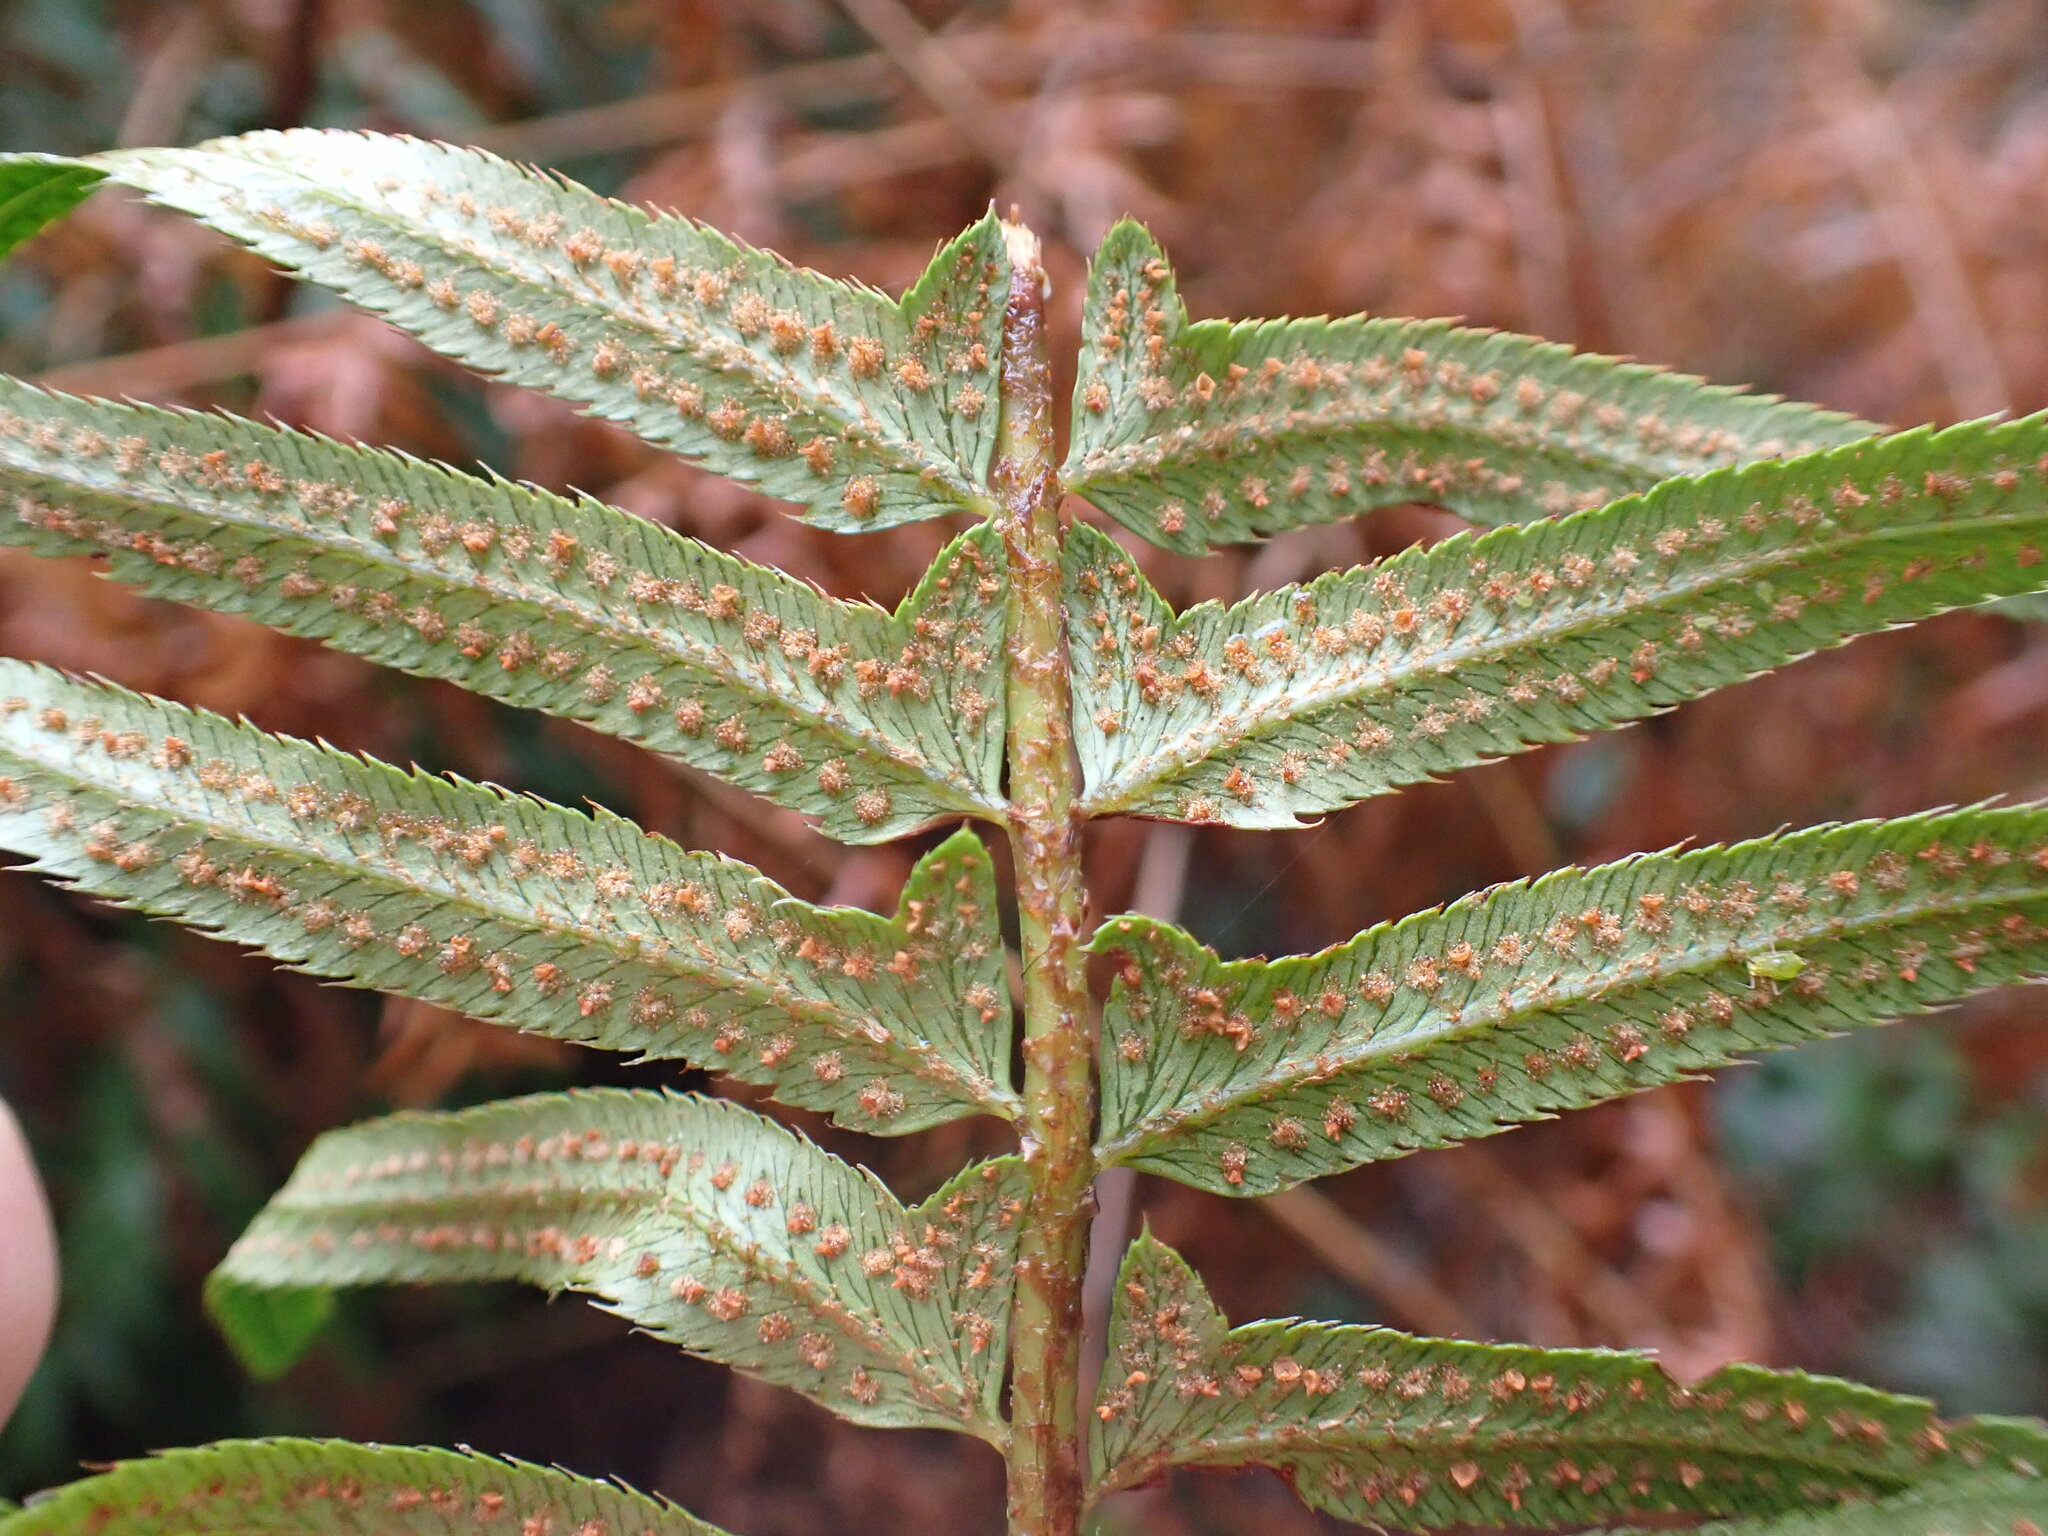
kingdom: Plantae
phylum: Tracheophyta
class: Polypodiopsida
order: Polypodiales
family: Dryopteridaceae
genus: Polystichum
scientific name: Polystichum munitum
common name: Western sword-fern
